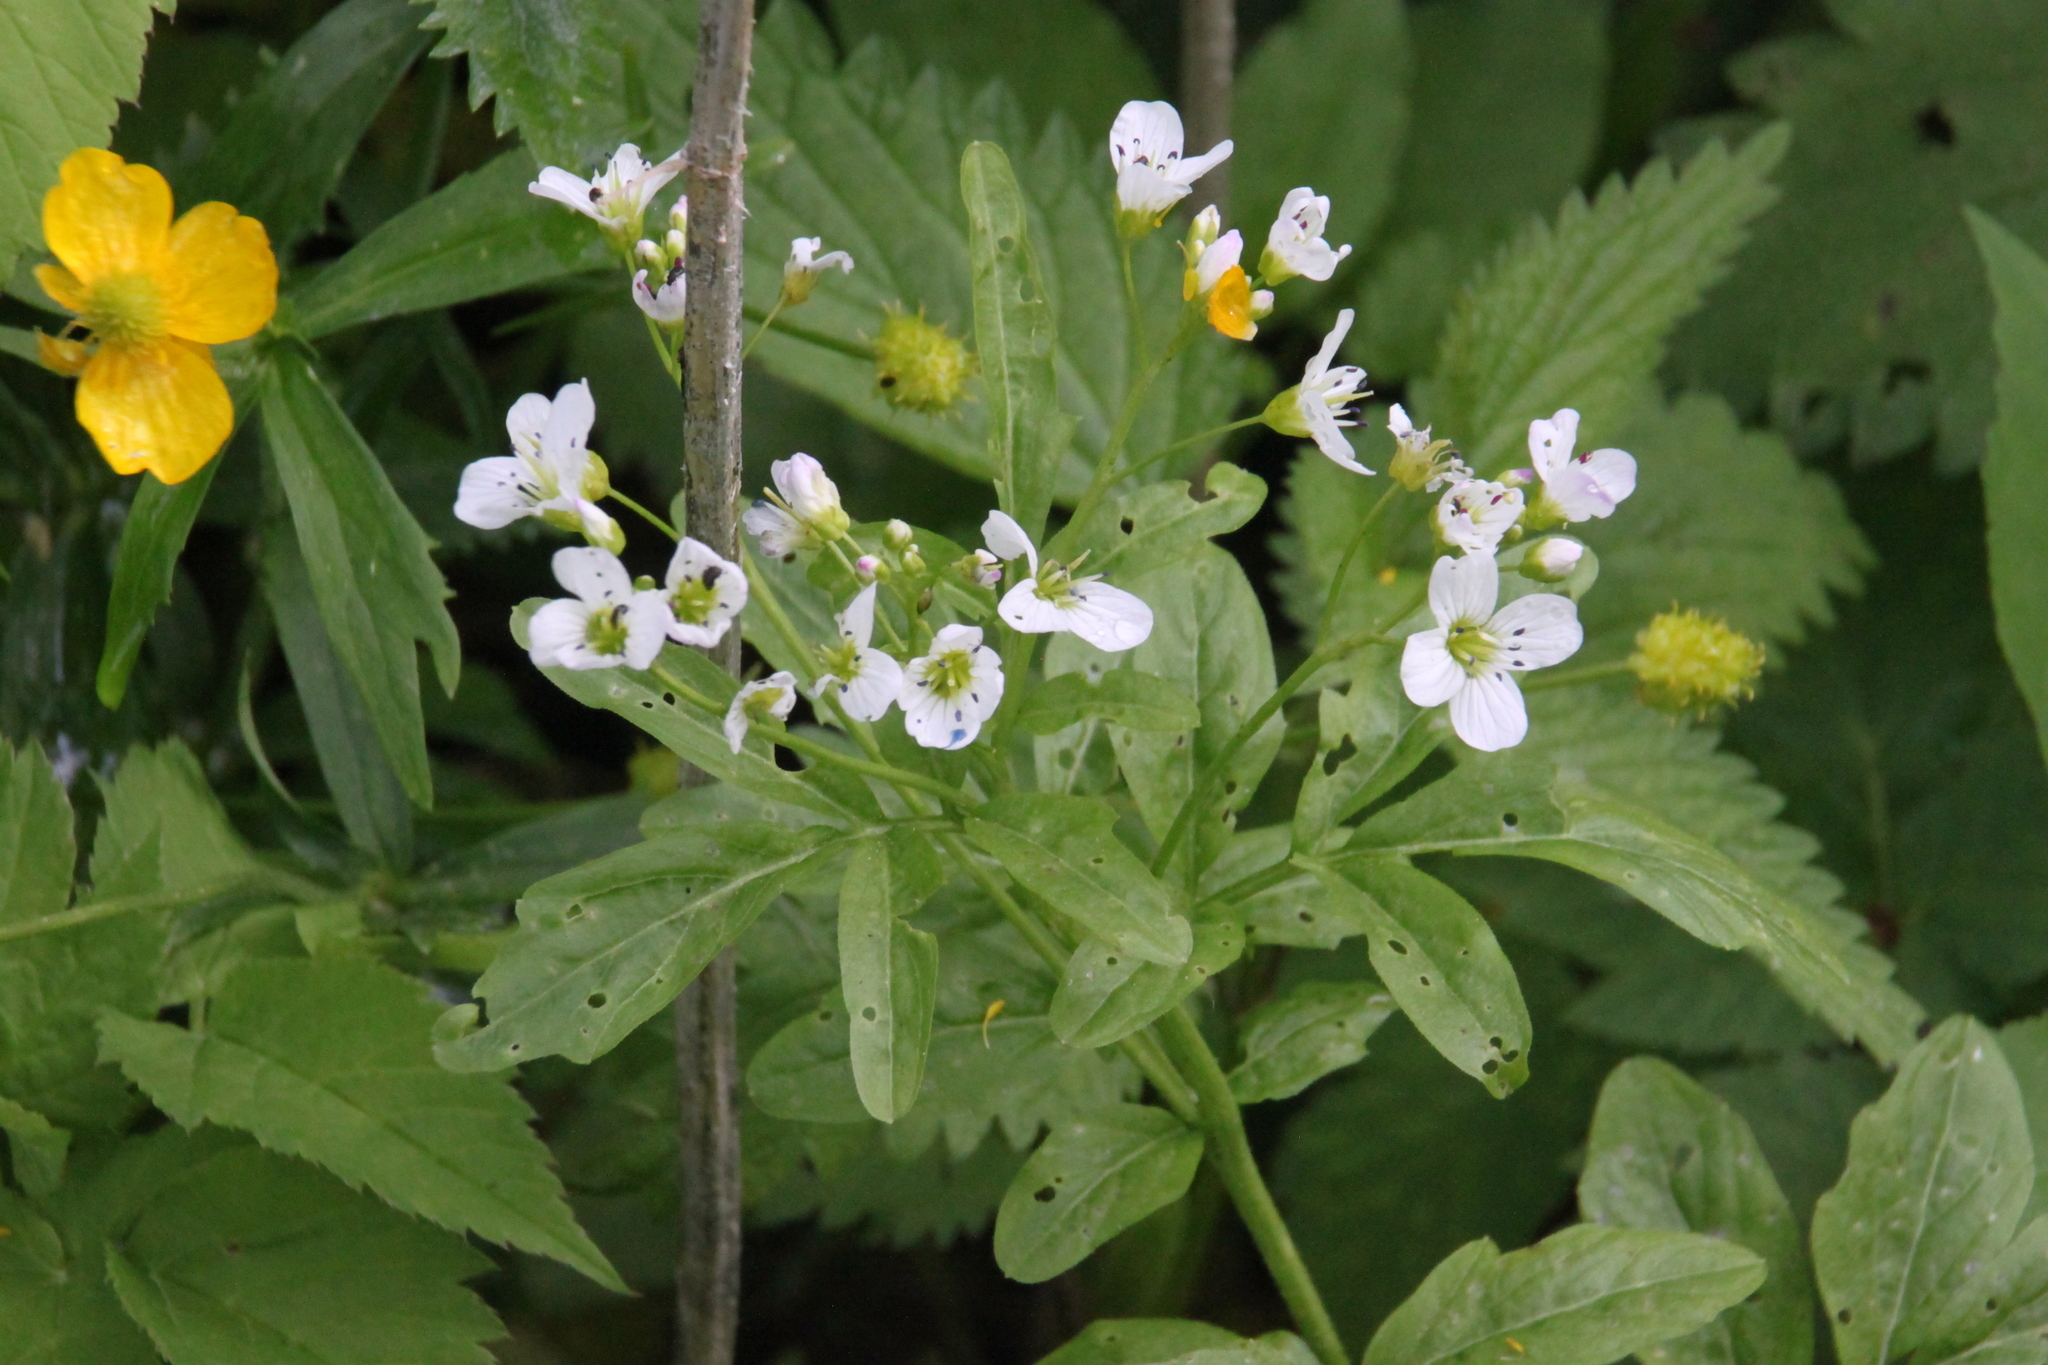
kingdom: Plantae
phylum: Tracheophyta
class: Magnoliopsida
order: Brassicales
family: Brassicaceae
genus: Cardamine
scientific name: Cardamine amara
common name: Large bitter-cress
